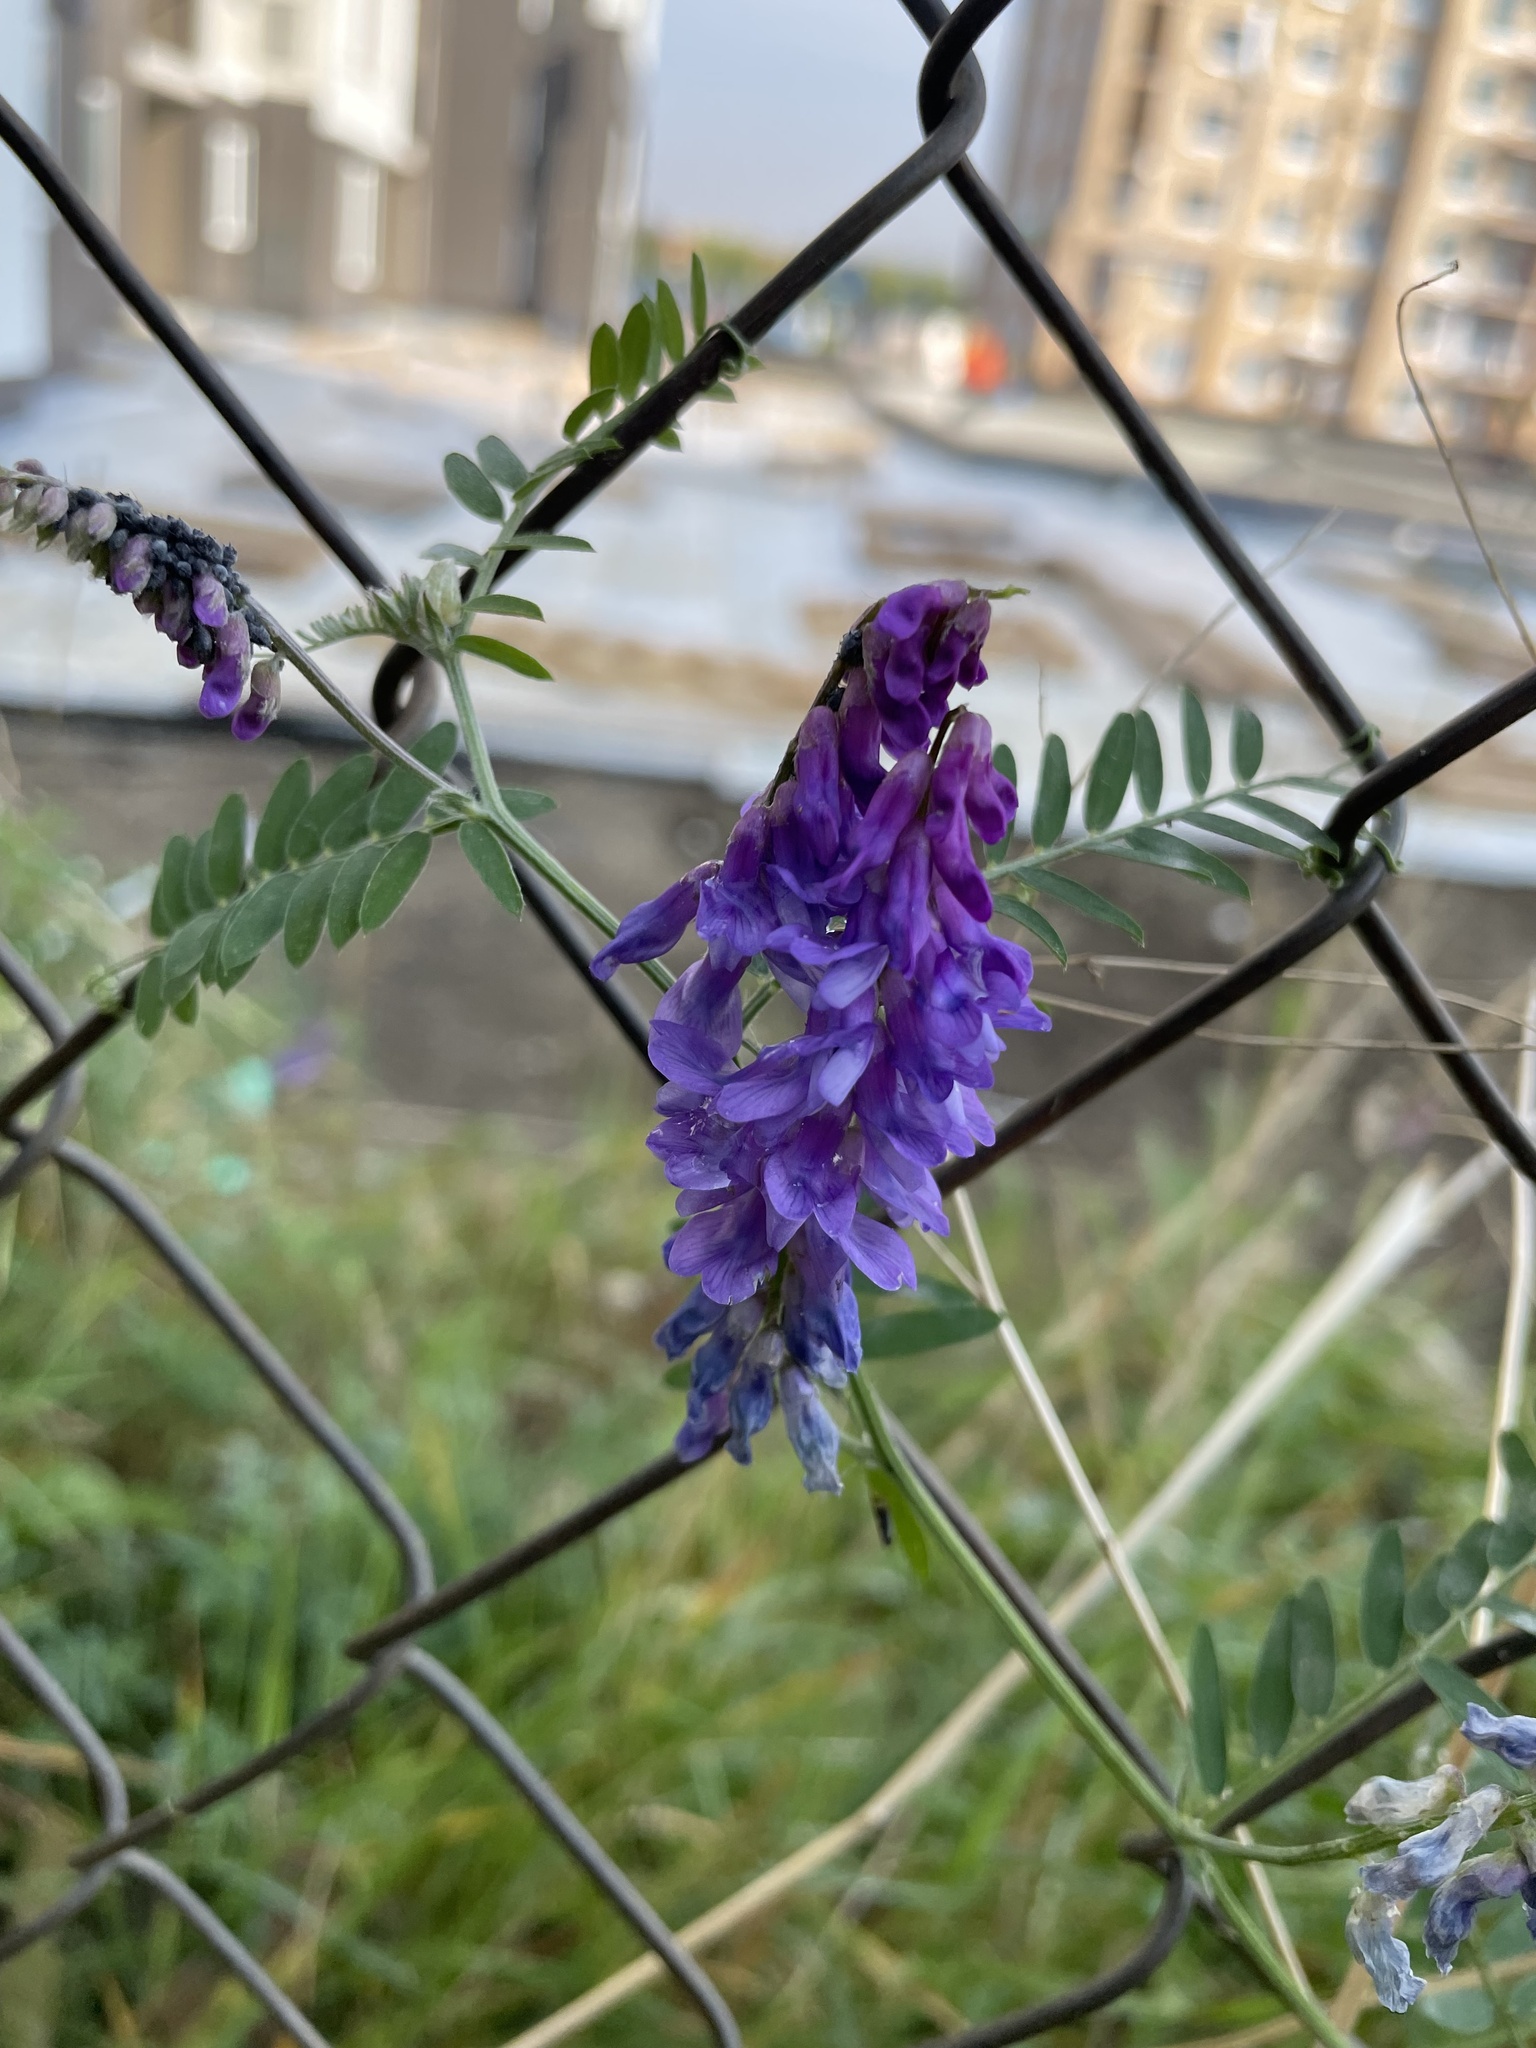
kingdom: Plantae
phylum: Tracheophyta
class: Magnoliopsida
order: Fabales
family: Fabaceae
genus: Vicia
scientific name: Vicia cracca
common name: Bird vetch
